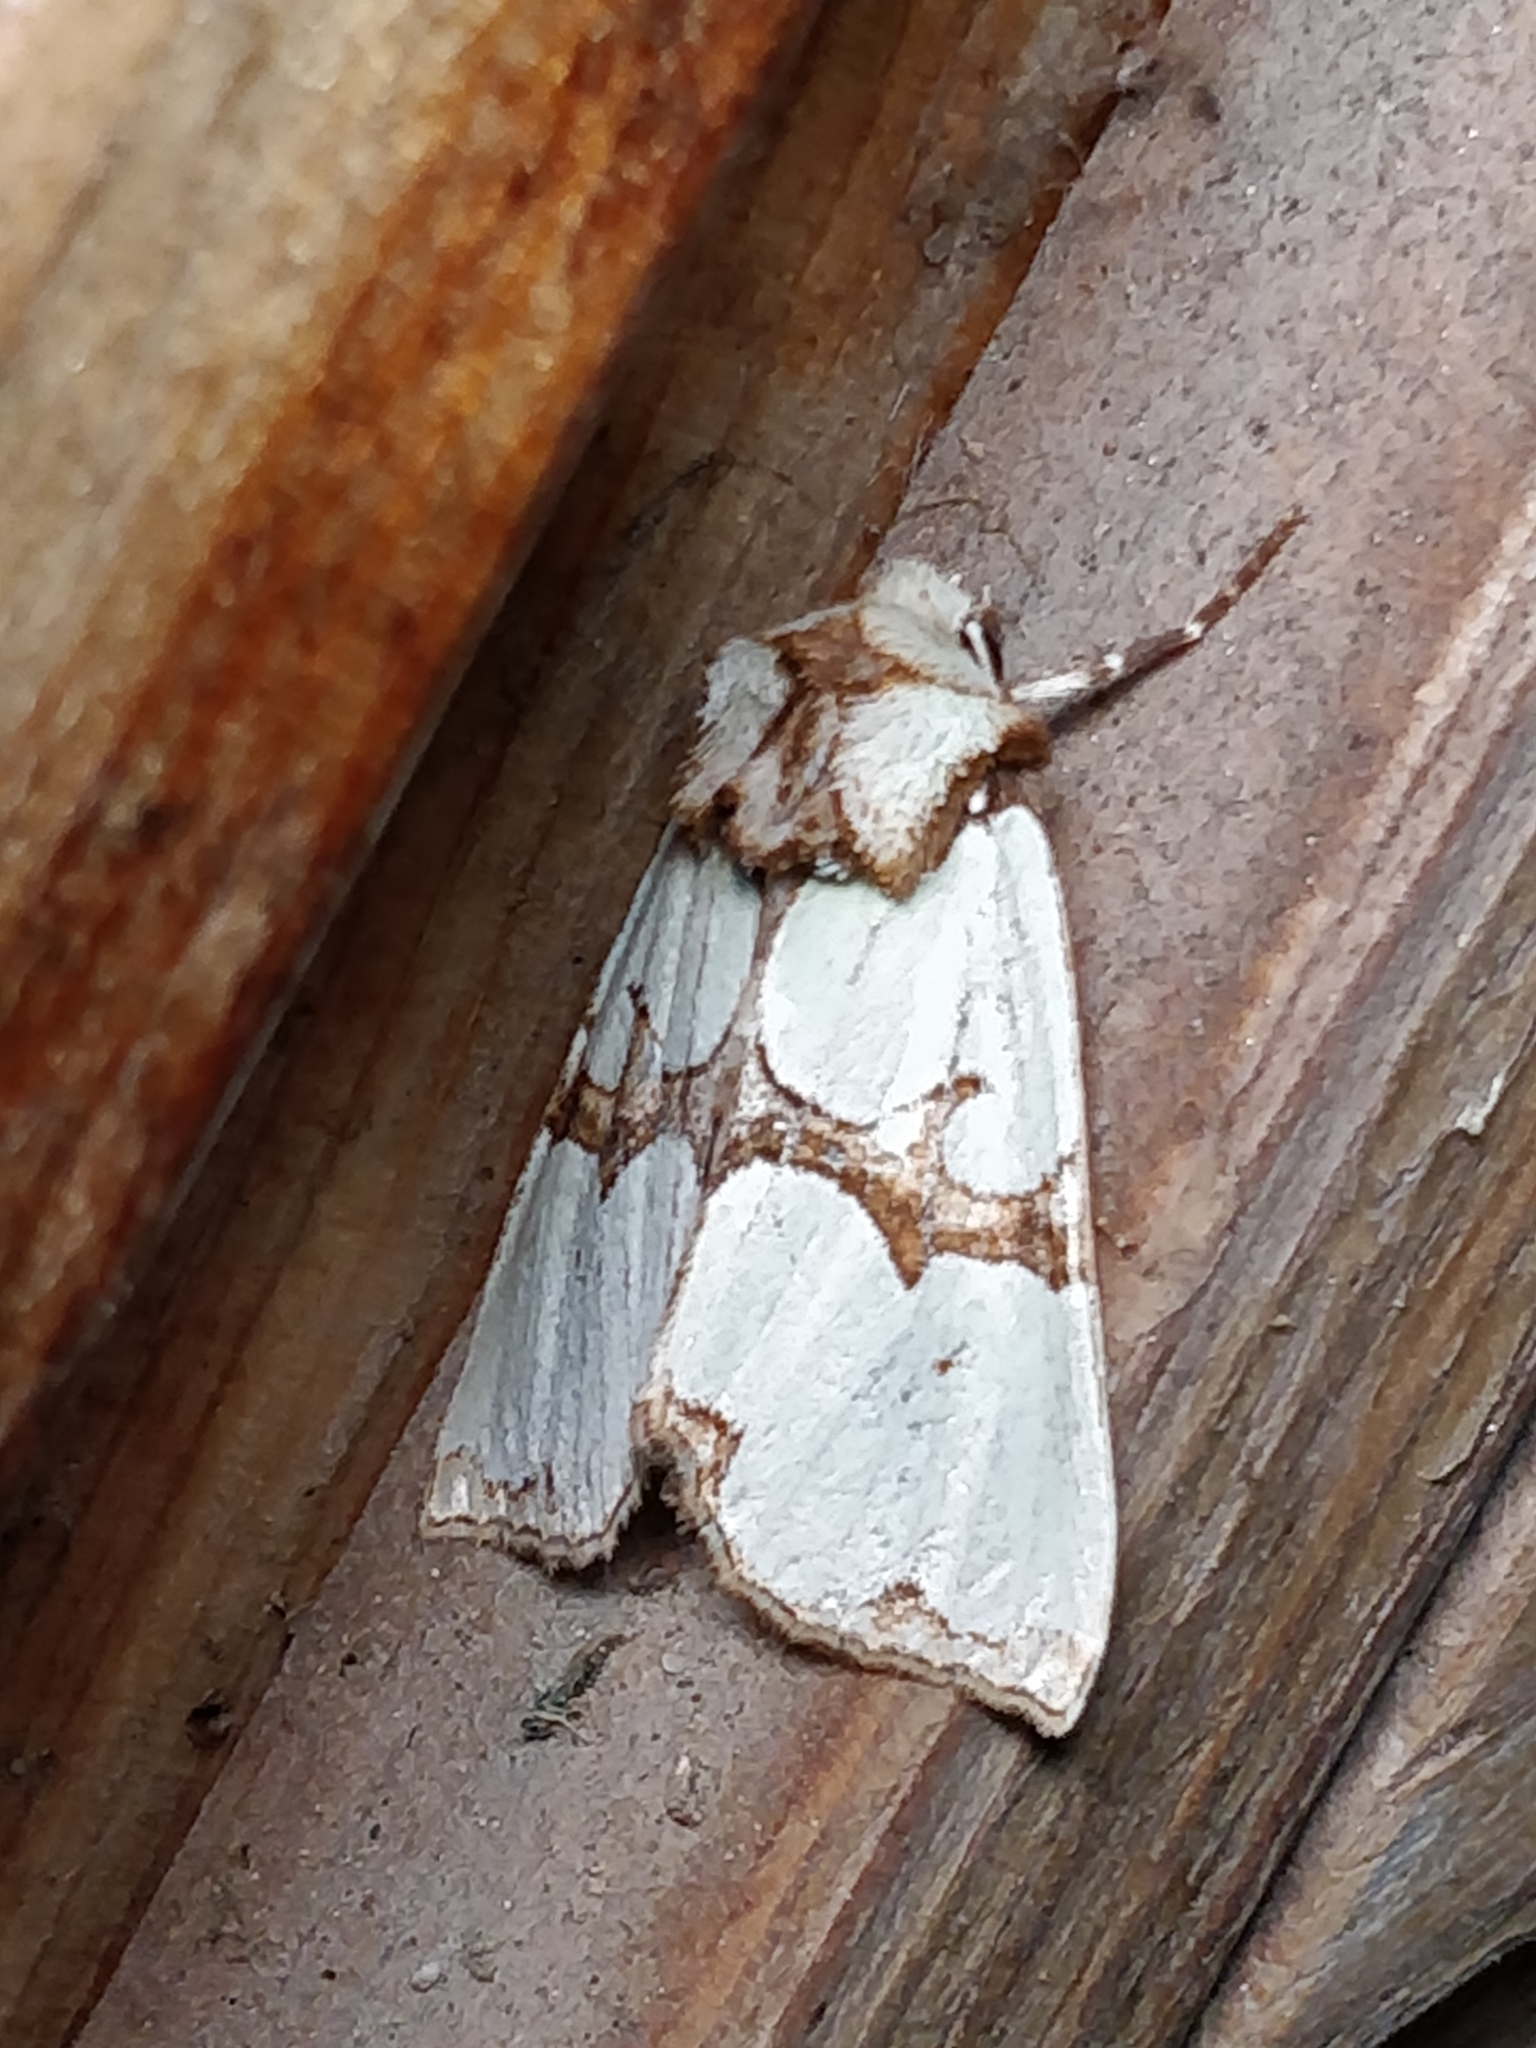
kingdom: Animalia
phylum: Arthropoda
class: Insecta
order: Lepidoptera
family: Noctuidae
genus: Staurophora
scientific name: Staurophora celsia
